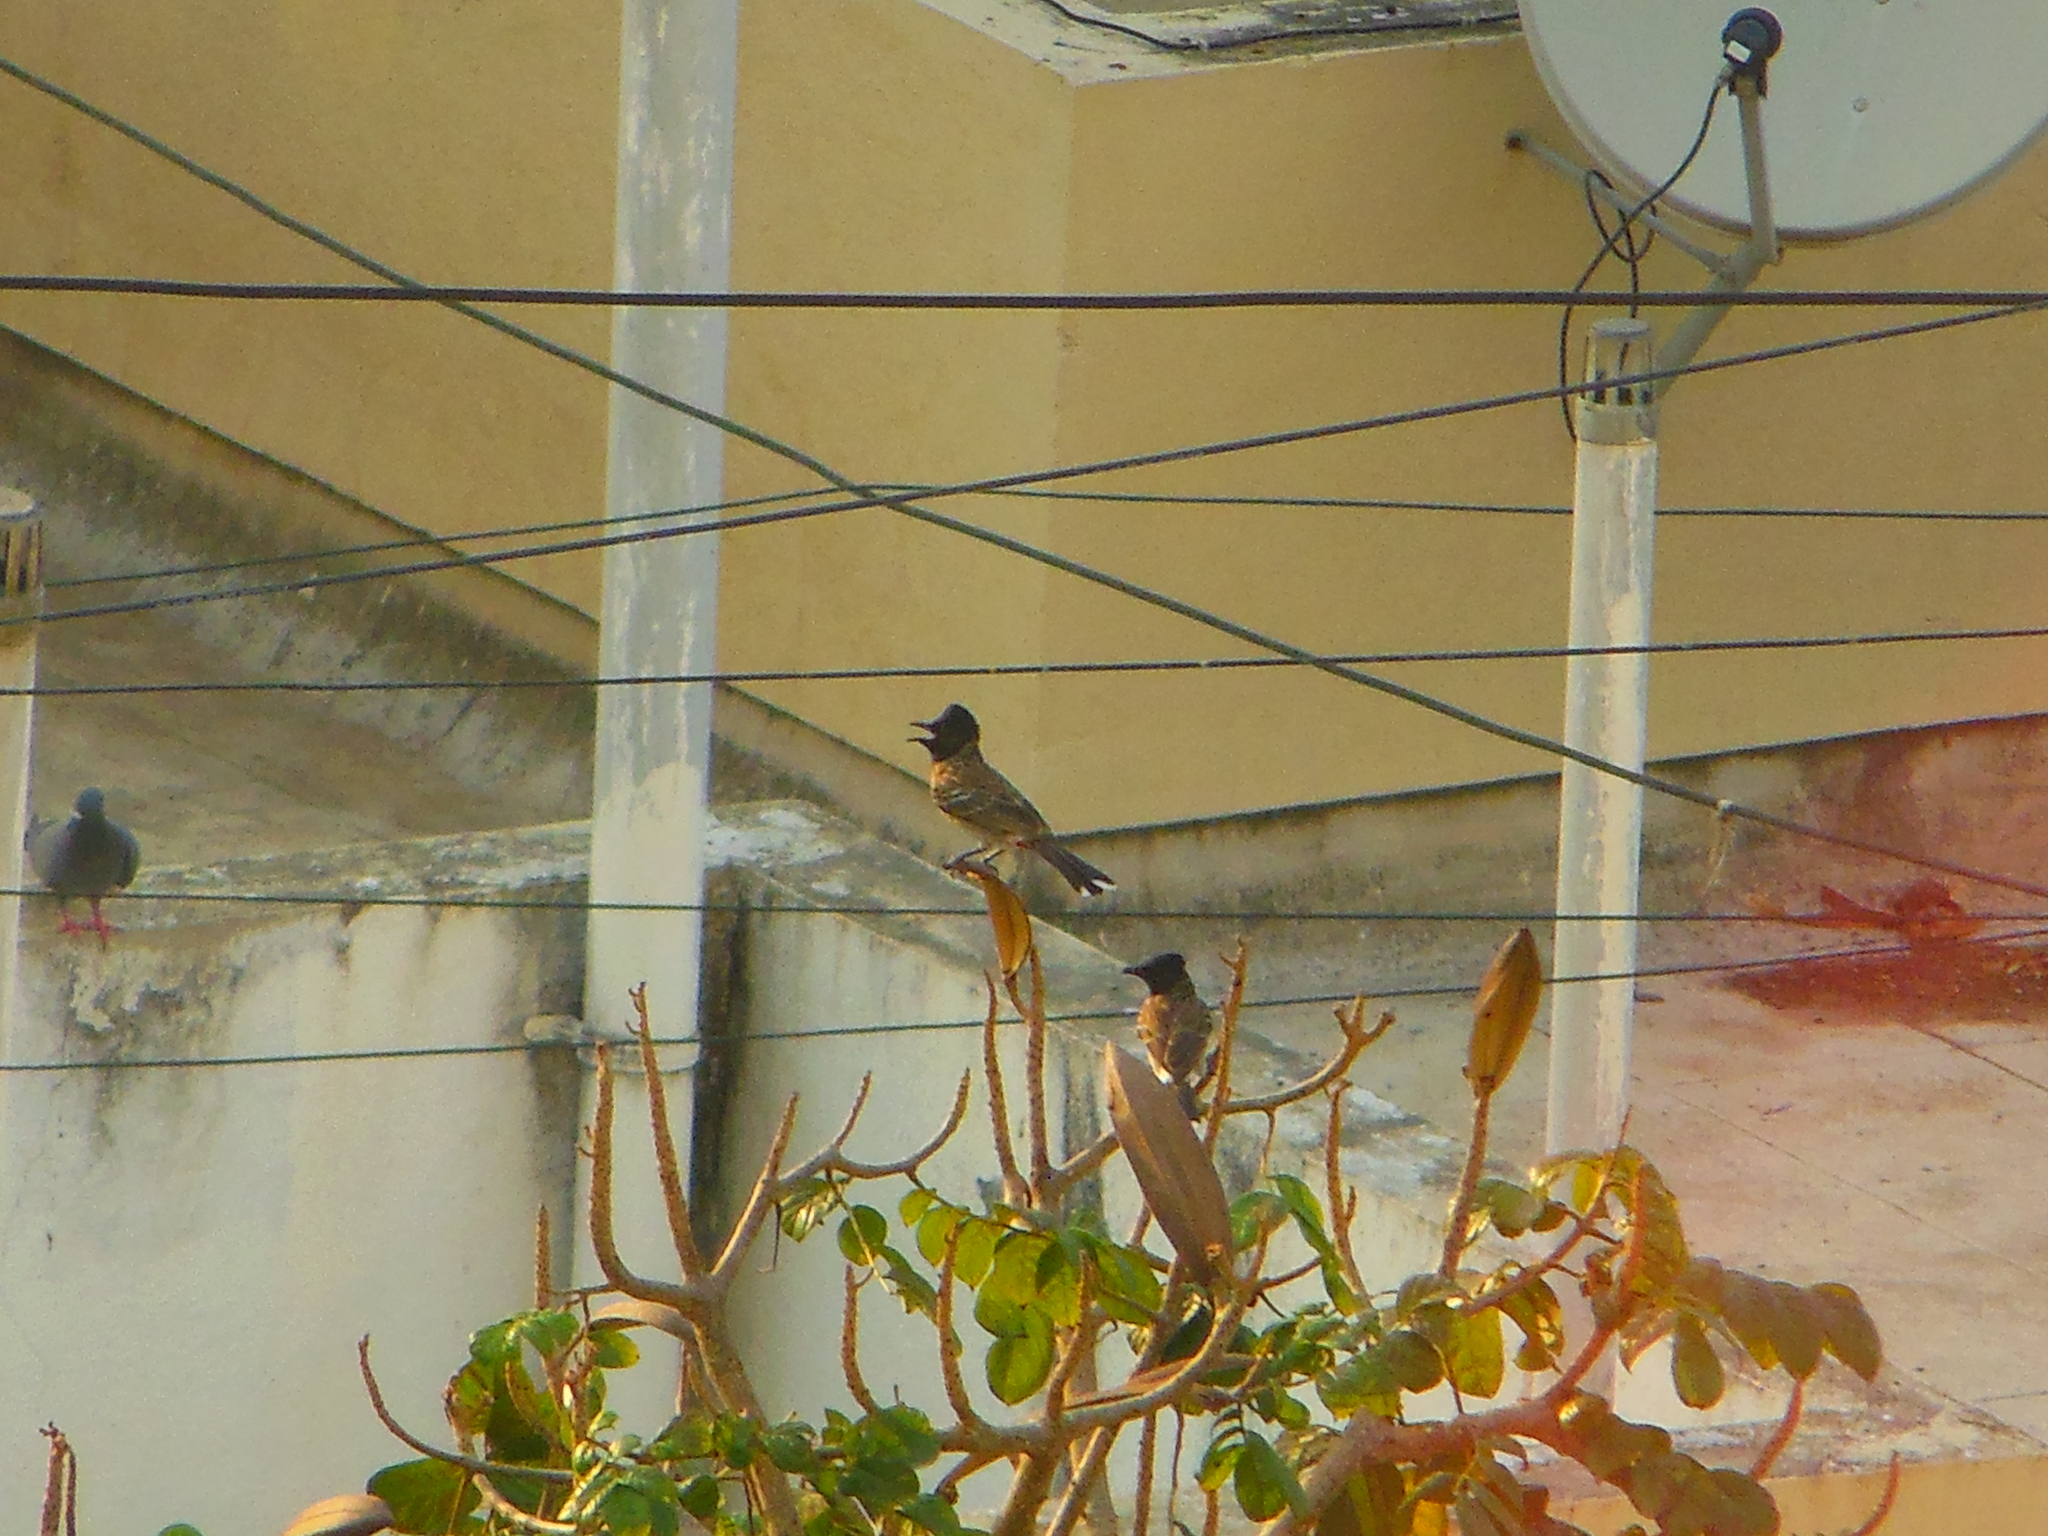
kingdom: Animalia
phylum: Chordata
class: Aves
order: Passeriformes
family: Pycnonotidae
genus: Pycnonotus
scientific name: Pycnonotus cafer
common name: Red-vented bulbul
